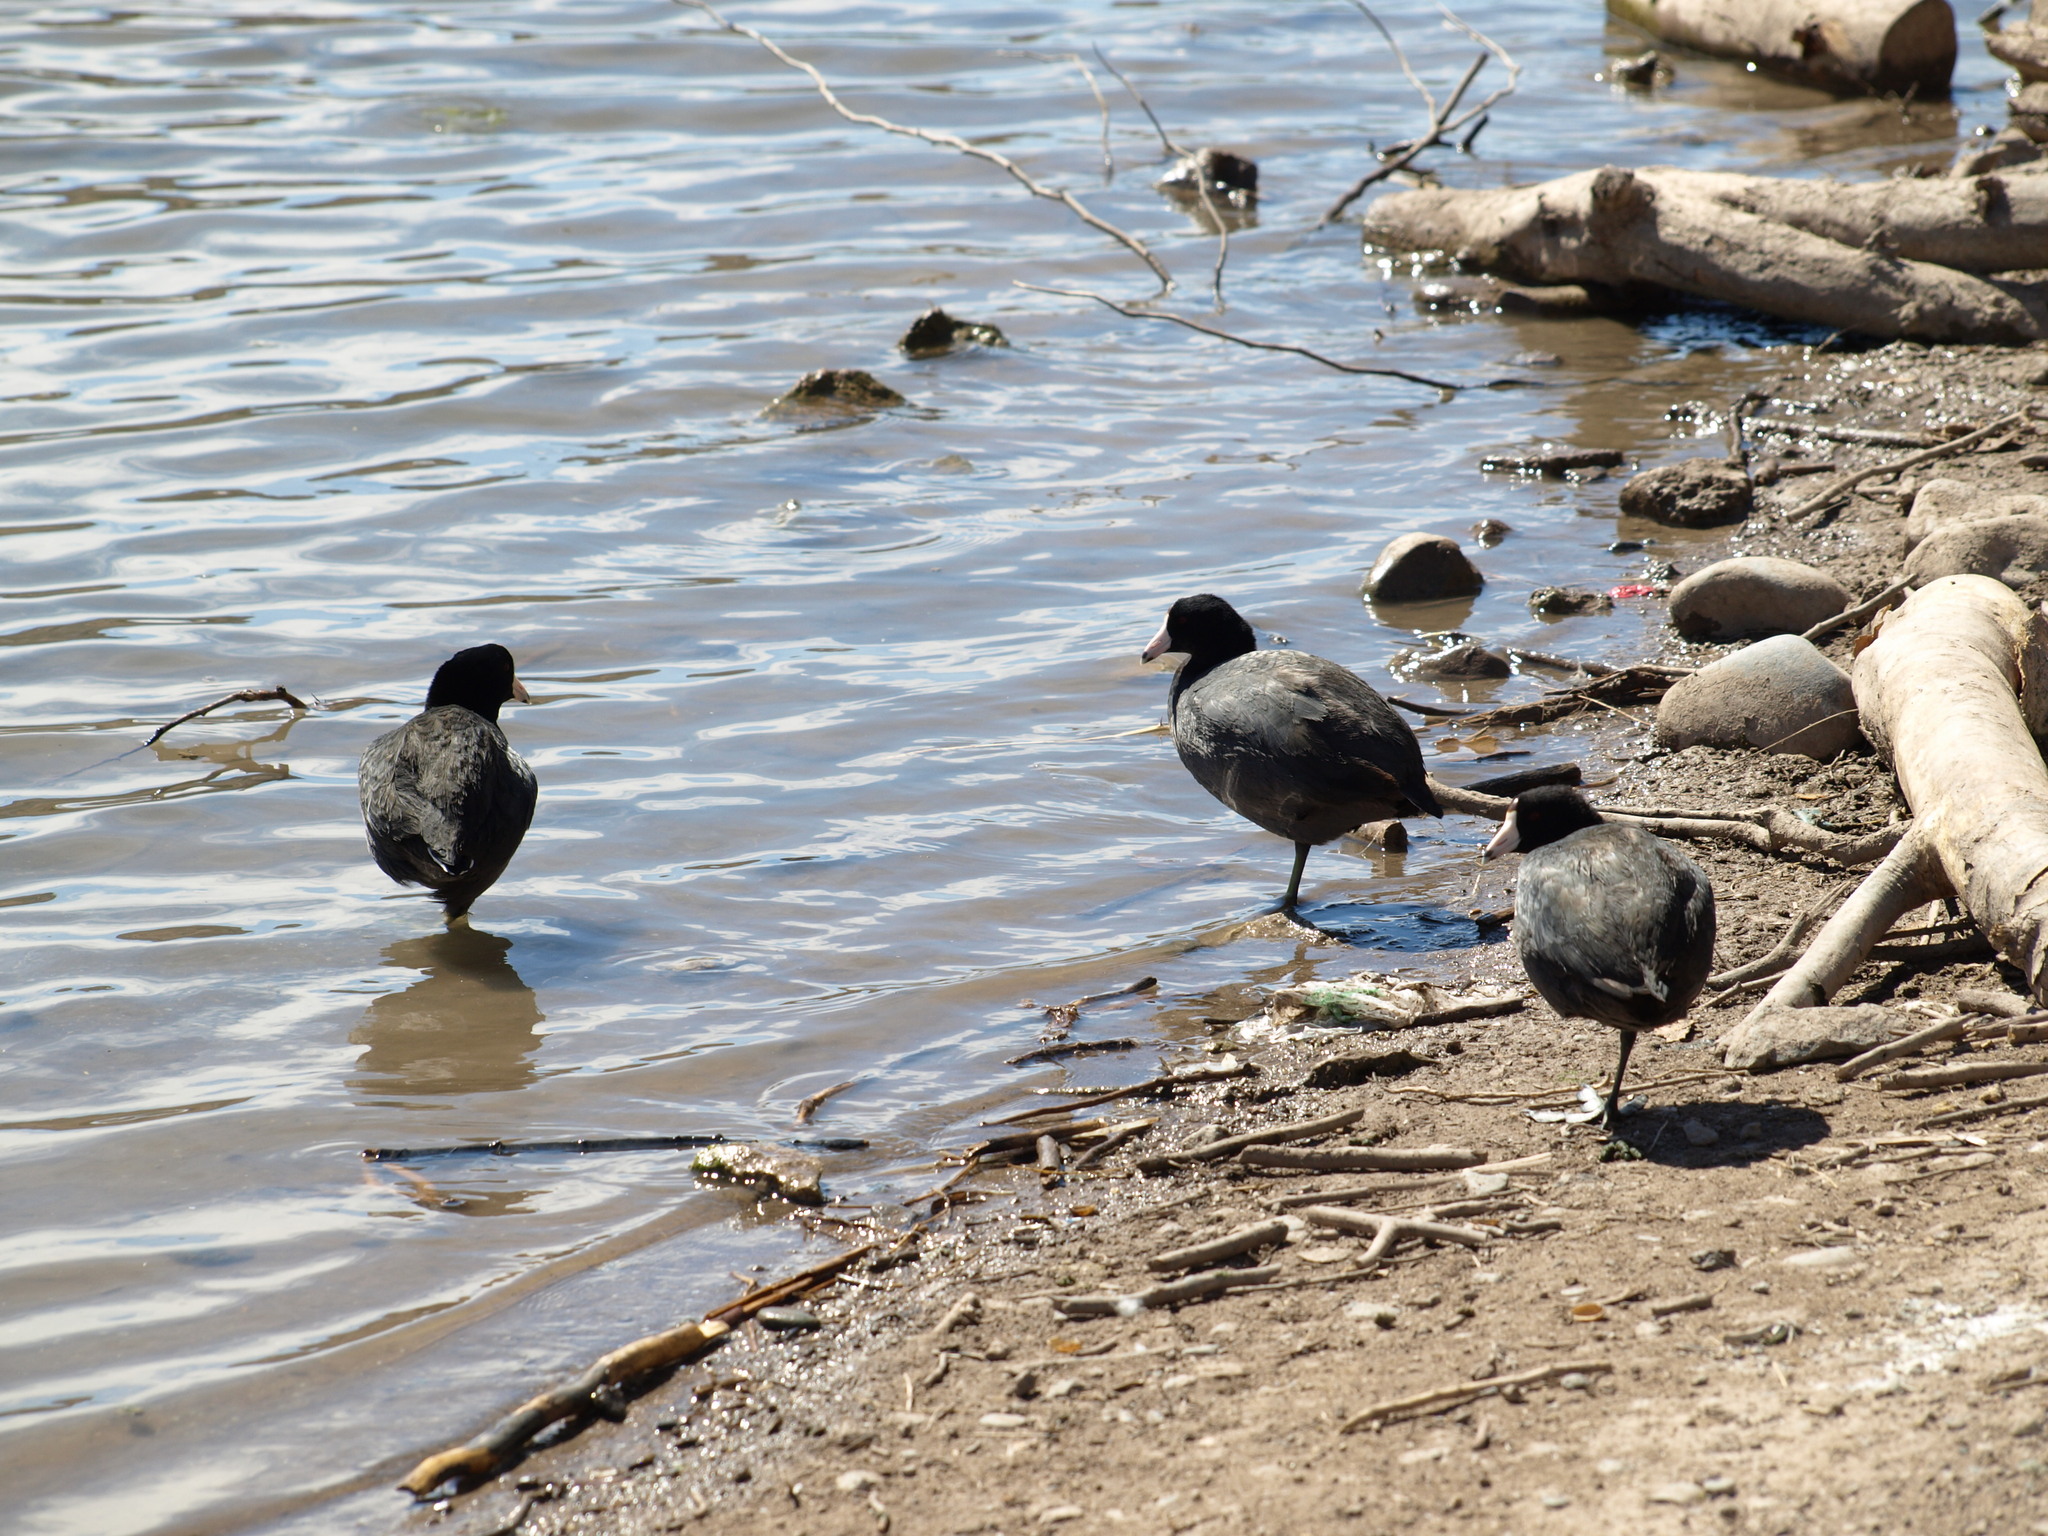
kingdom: Animalia
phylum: Chordata
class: Aves
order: Gruiformes
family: Rallidae
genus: Fulica
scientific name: Fulica americana
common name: American coot
